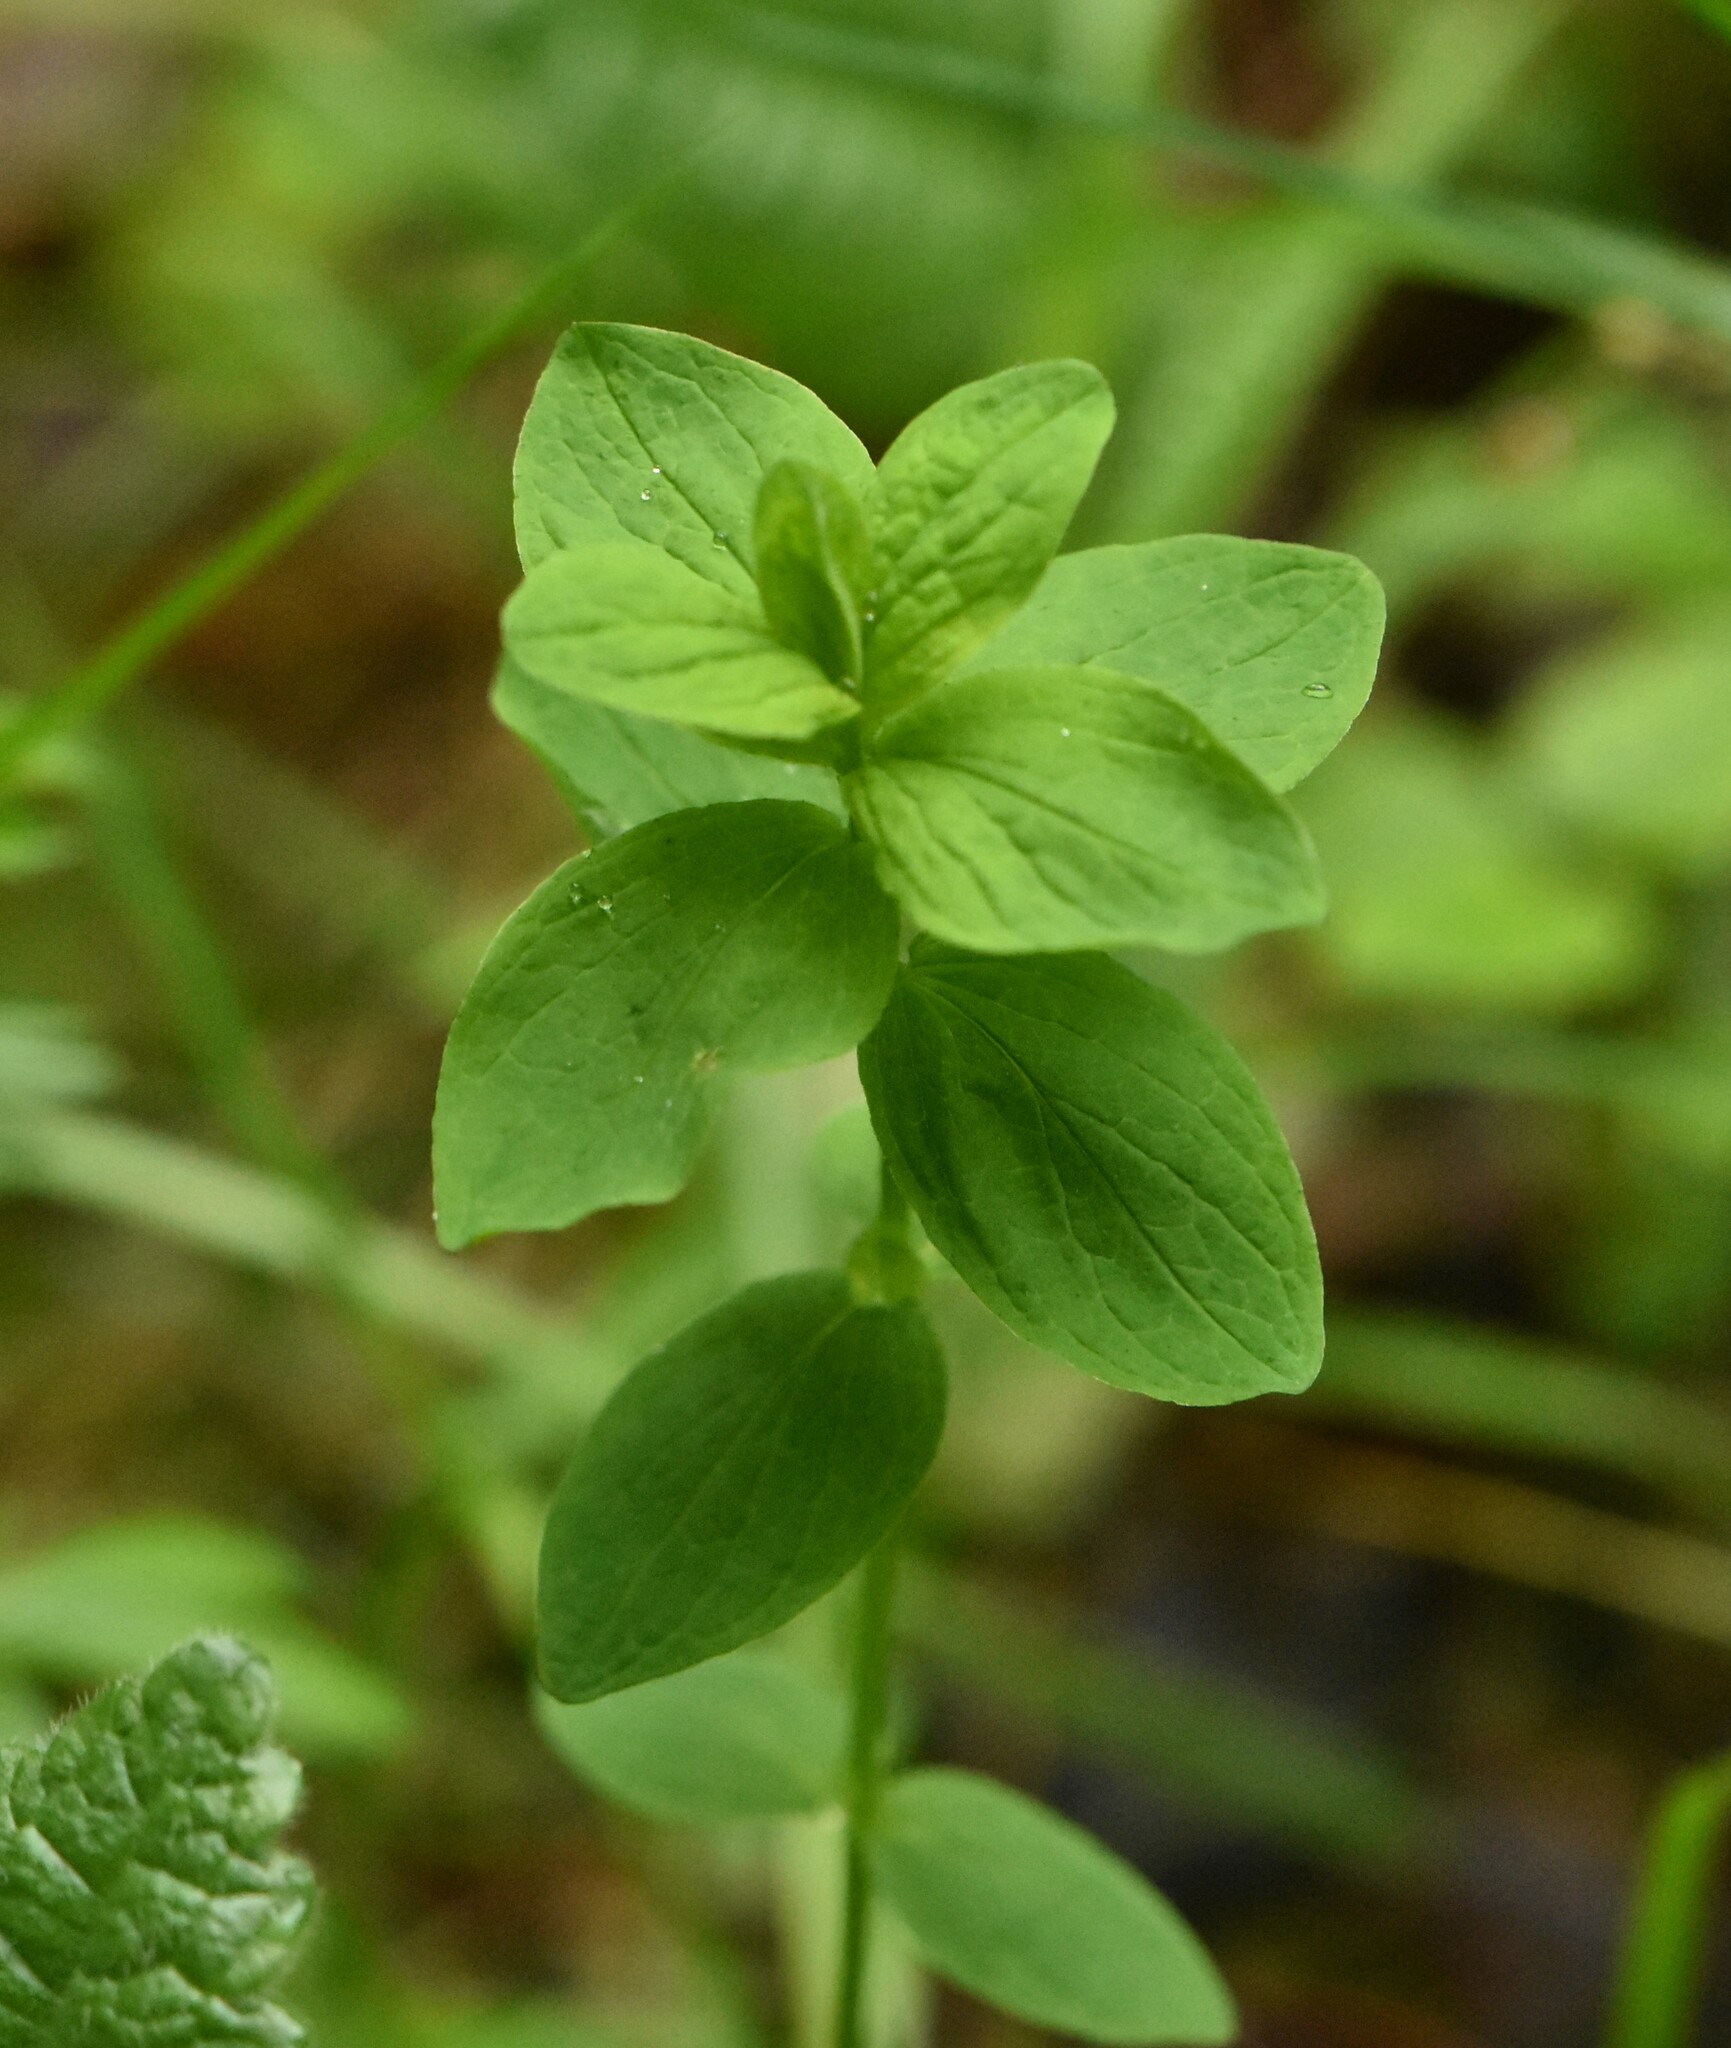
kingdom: Plantae
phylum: Tracheophyta
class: Magnoliopsida
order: Malpighiales
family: Hypericaceae
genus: Hypericum
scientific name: Hypericum maculatum
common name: Imperforate st. john's-wort
